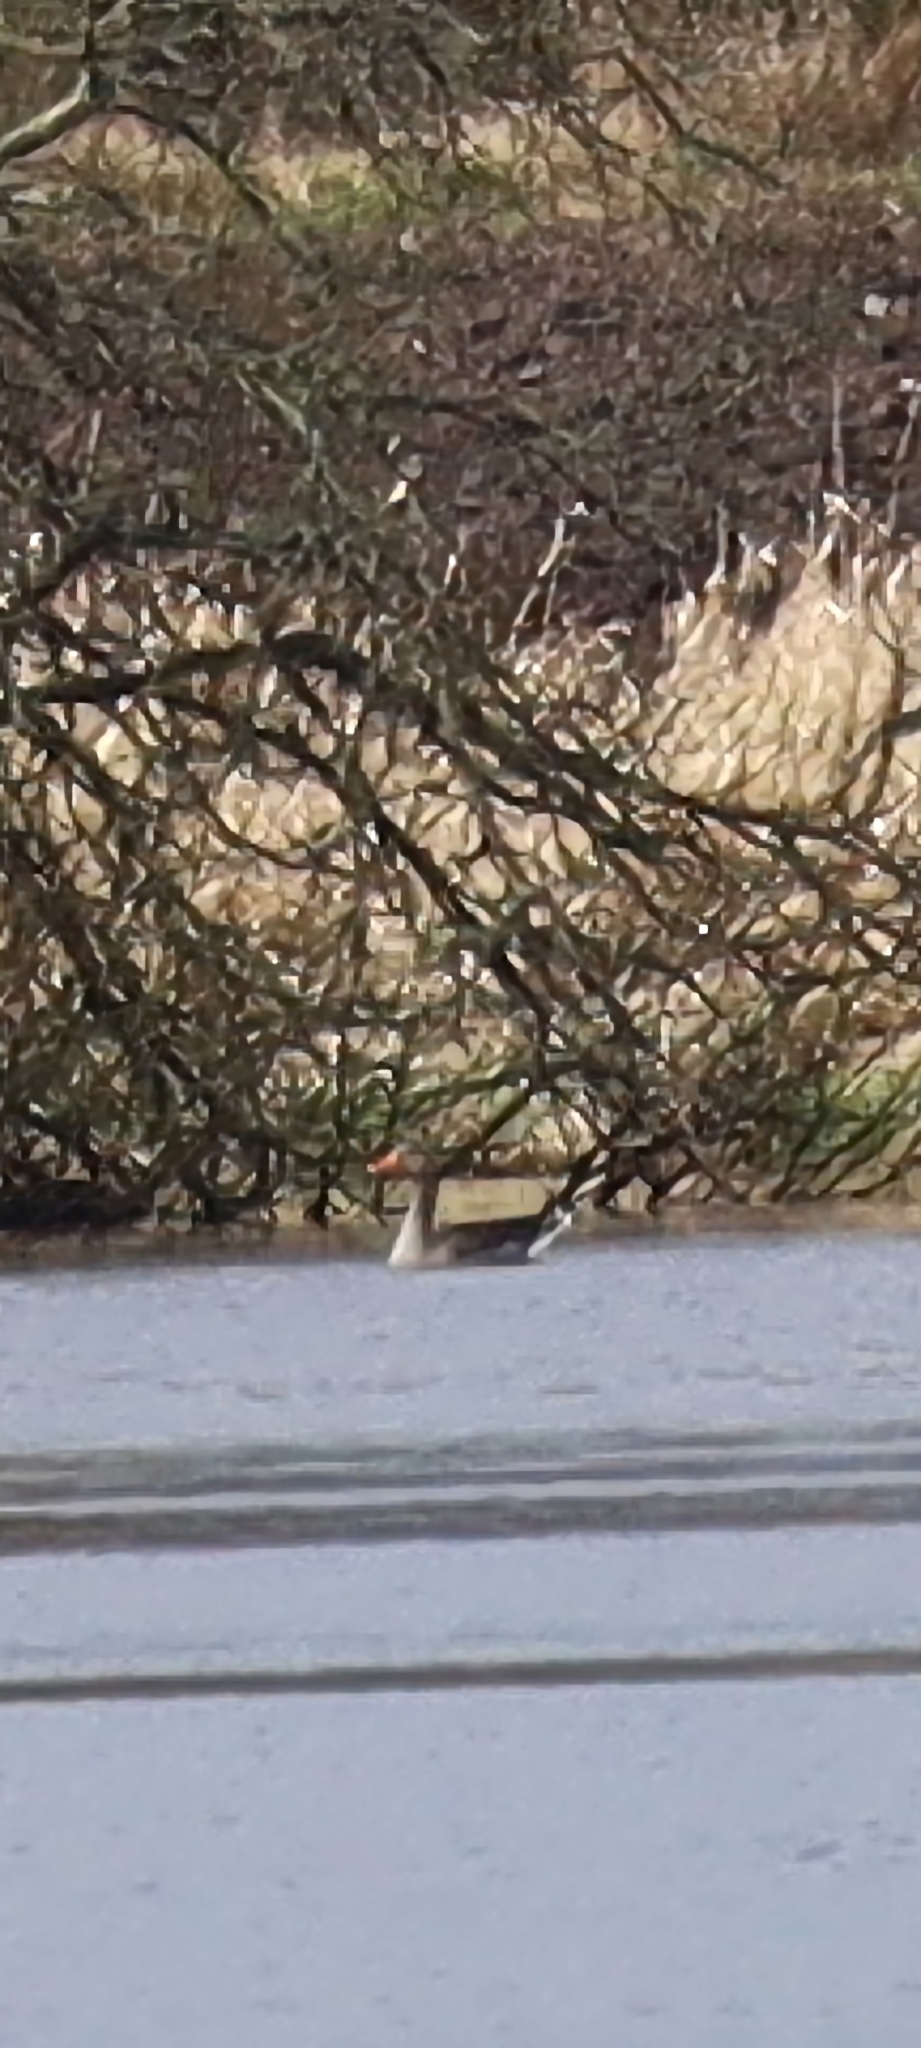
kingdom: Animalia
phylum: Chordata
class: Aves
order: Anseriformes
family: Anatidae
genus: Anser
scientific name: Anser anser
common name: Greylag goose
